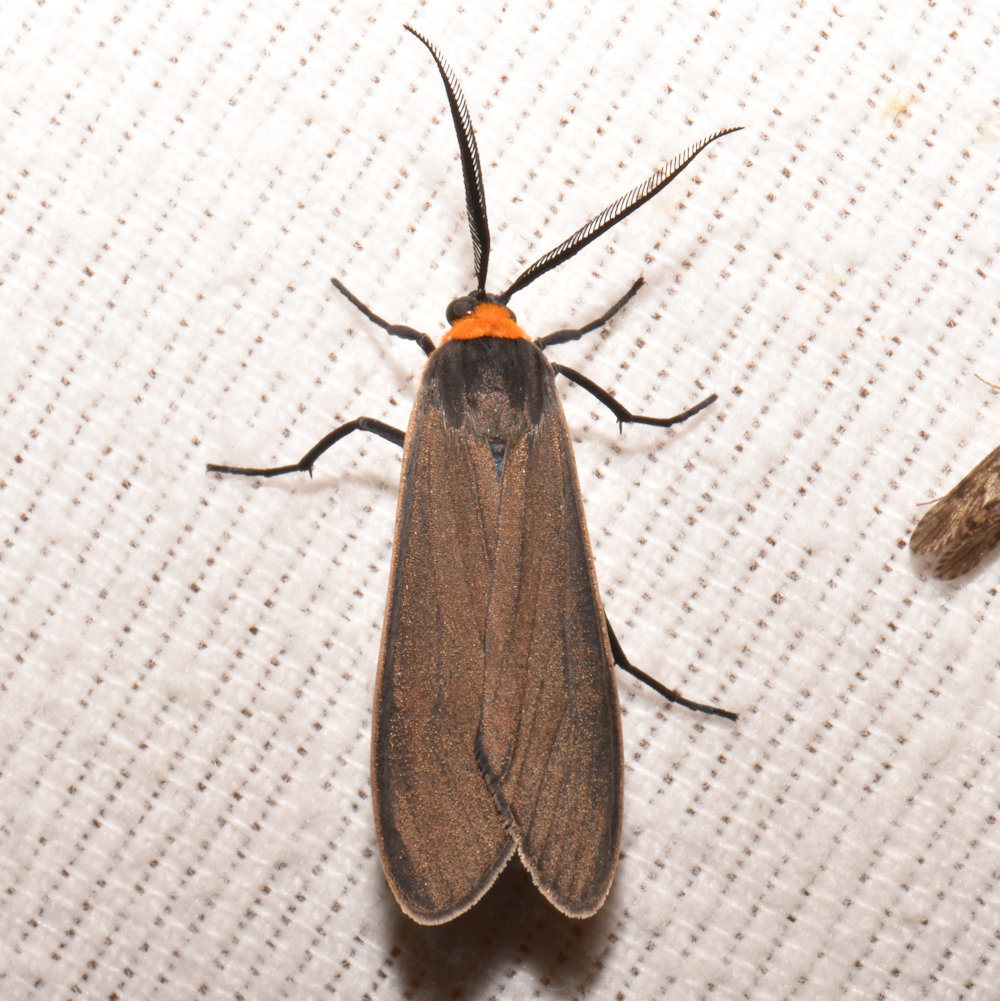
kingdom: Animalia
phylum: Arthropoda
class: Insecta
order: Lepidoptera
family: Erebidae
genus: Cisseps
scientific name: Cisseps fulvicollis
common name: Yellow-collared scape moth
